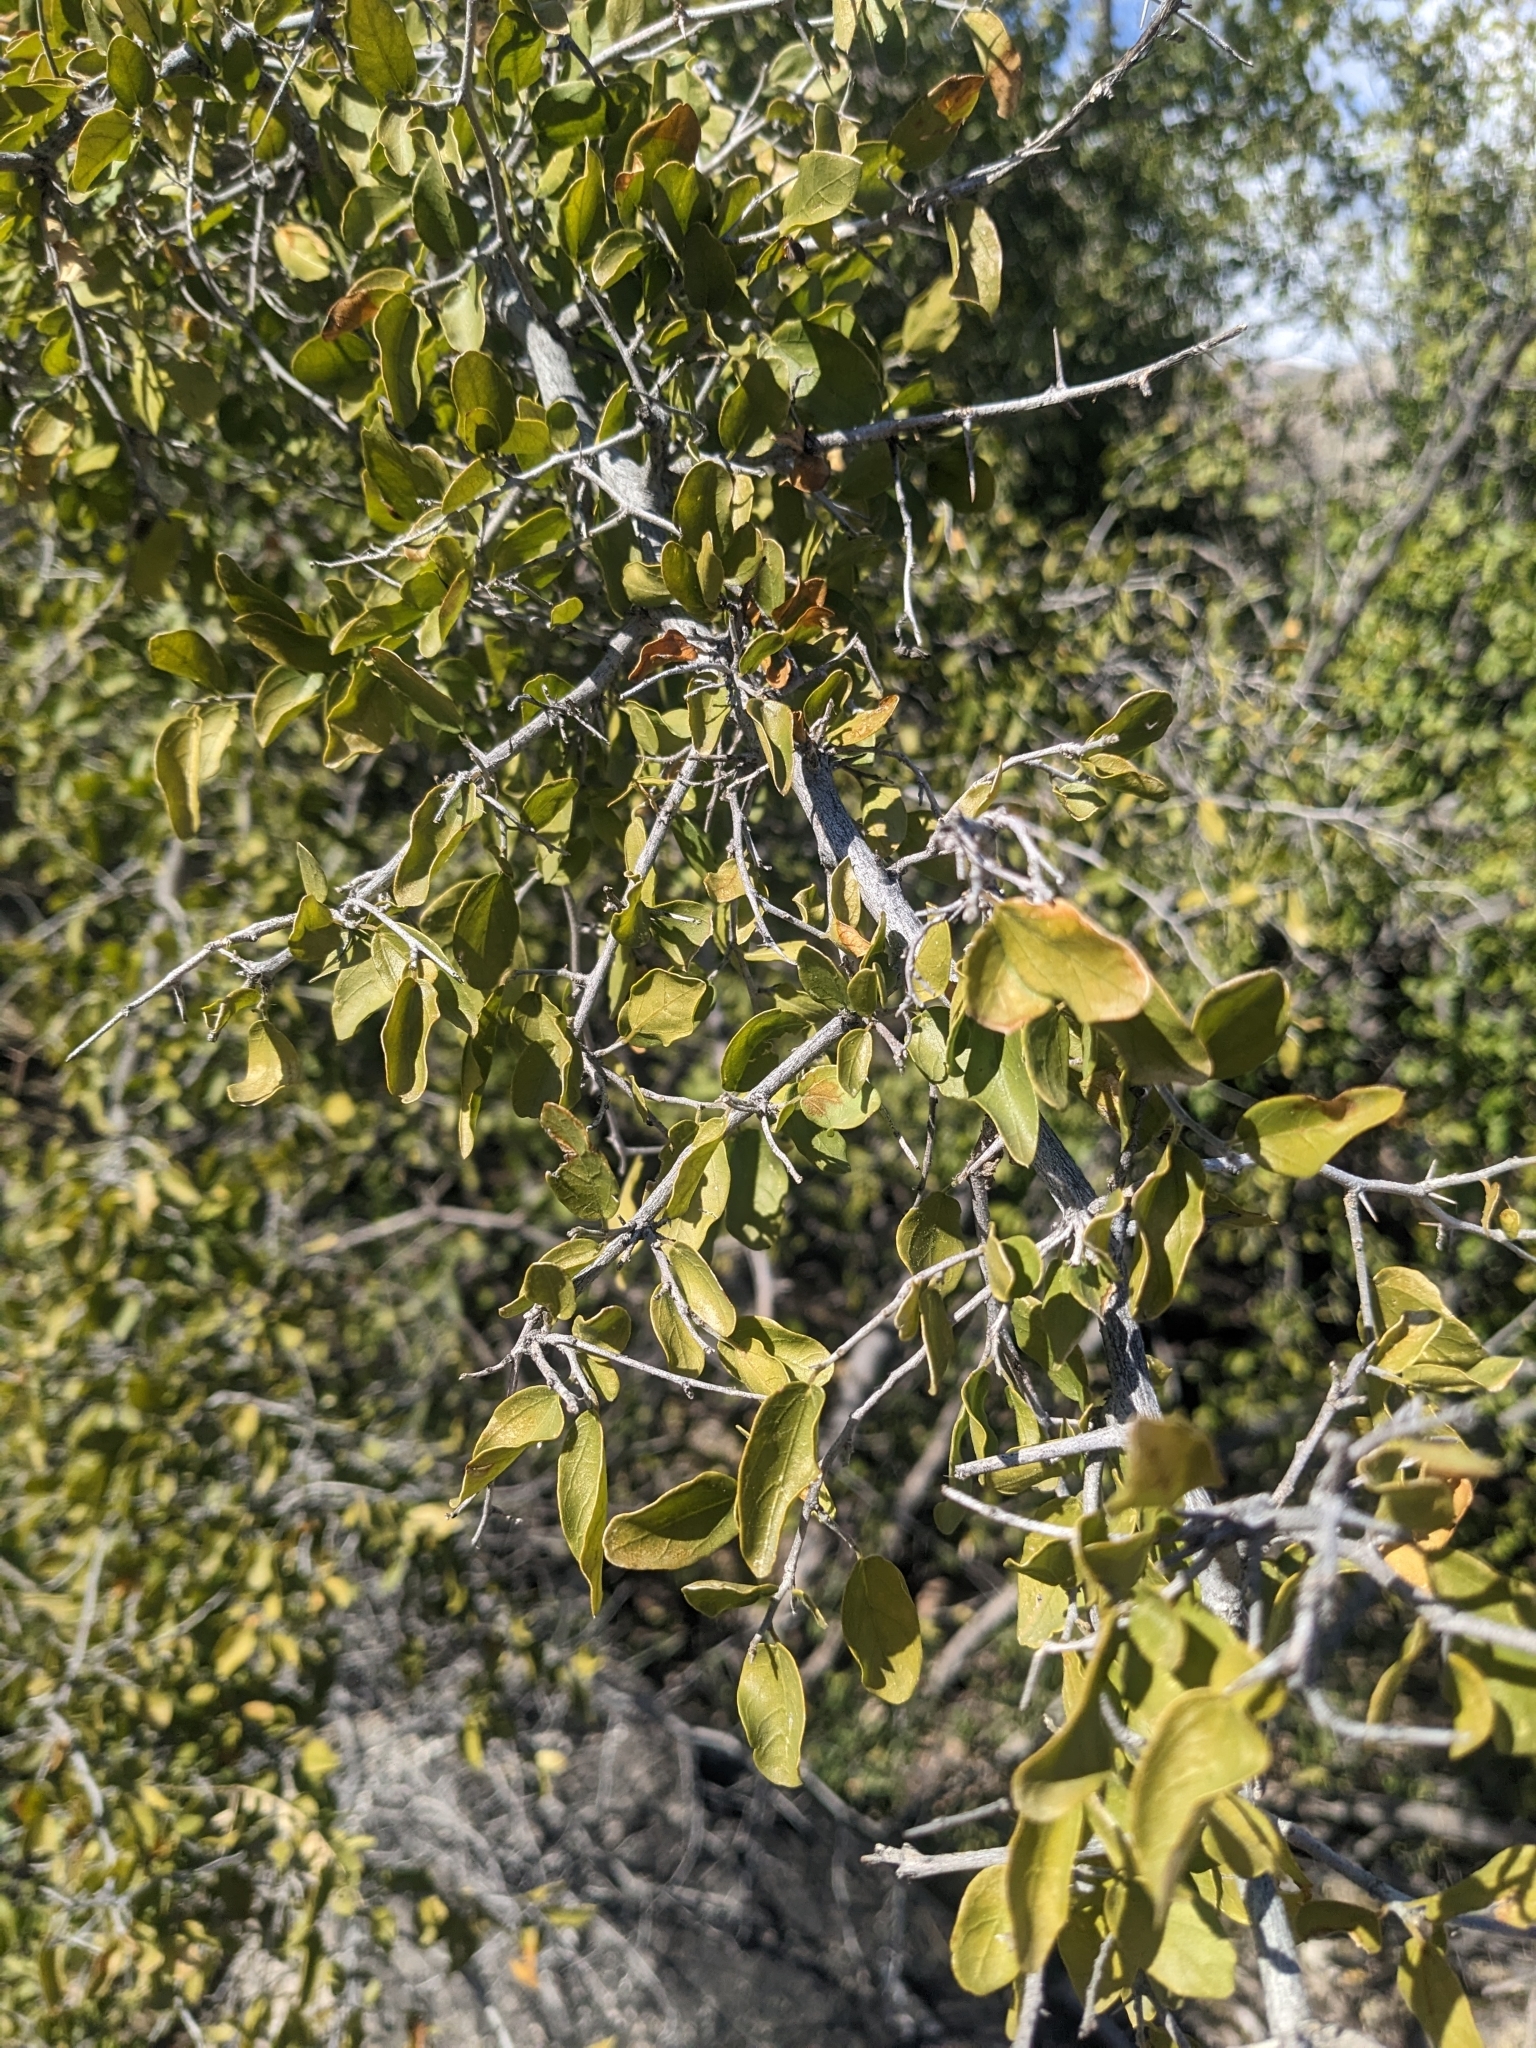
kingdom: Plantae
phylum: Tracheophyta
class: Magnoliopsida
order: Rosales
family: Cannabaceae
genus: Celtis
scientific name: Celtis pallida
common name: Desert hackberry
